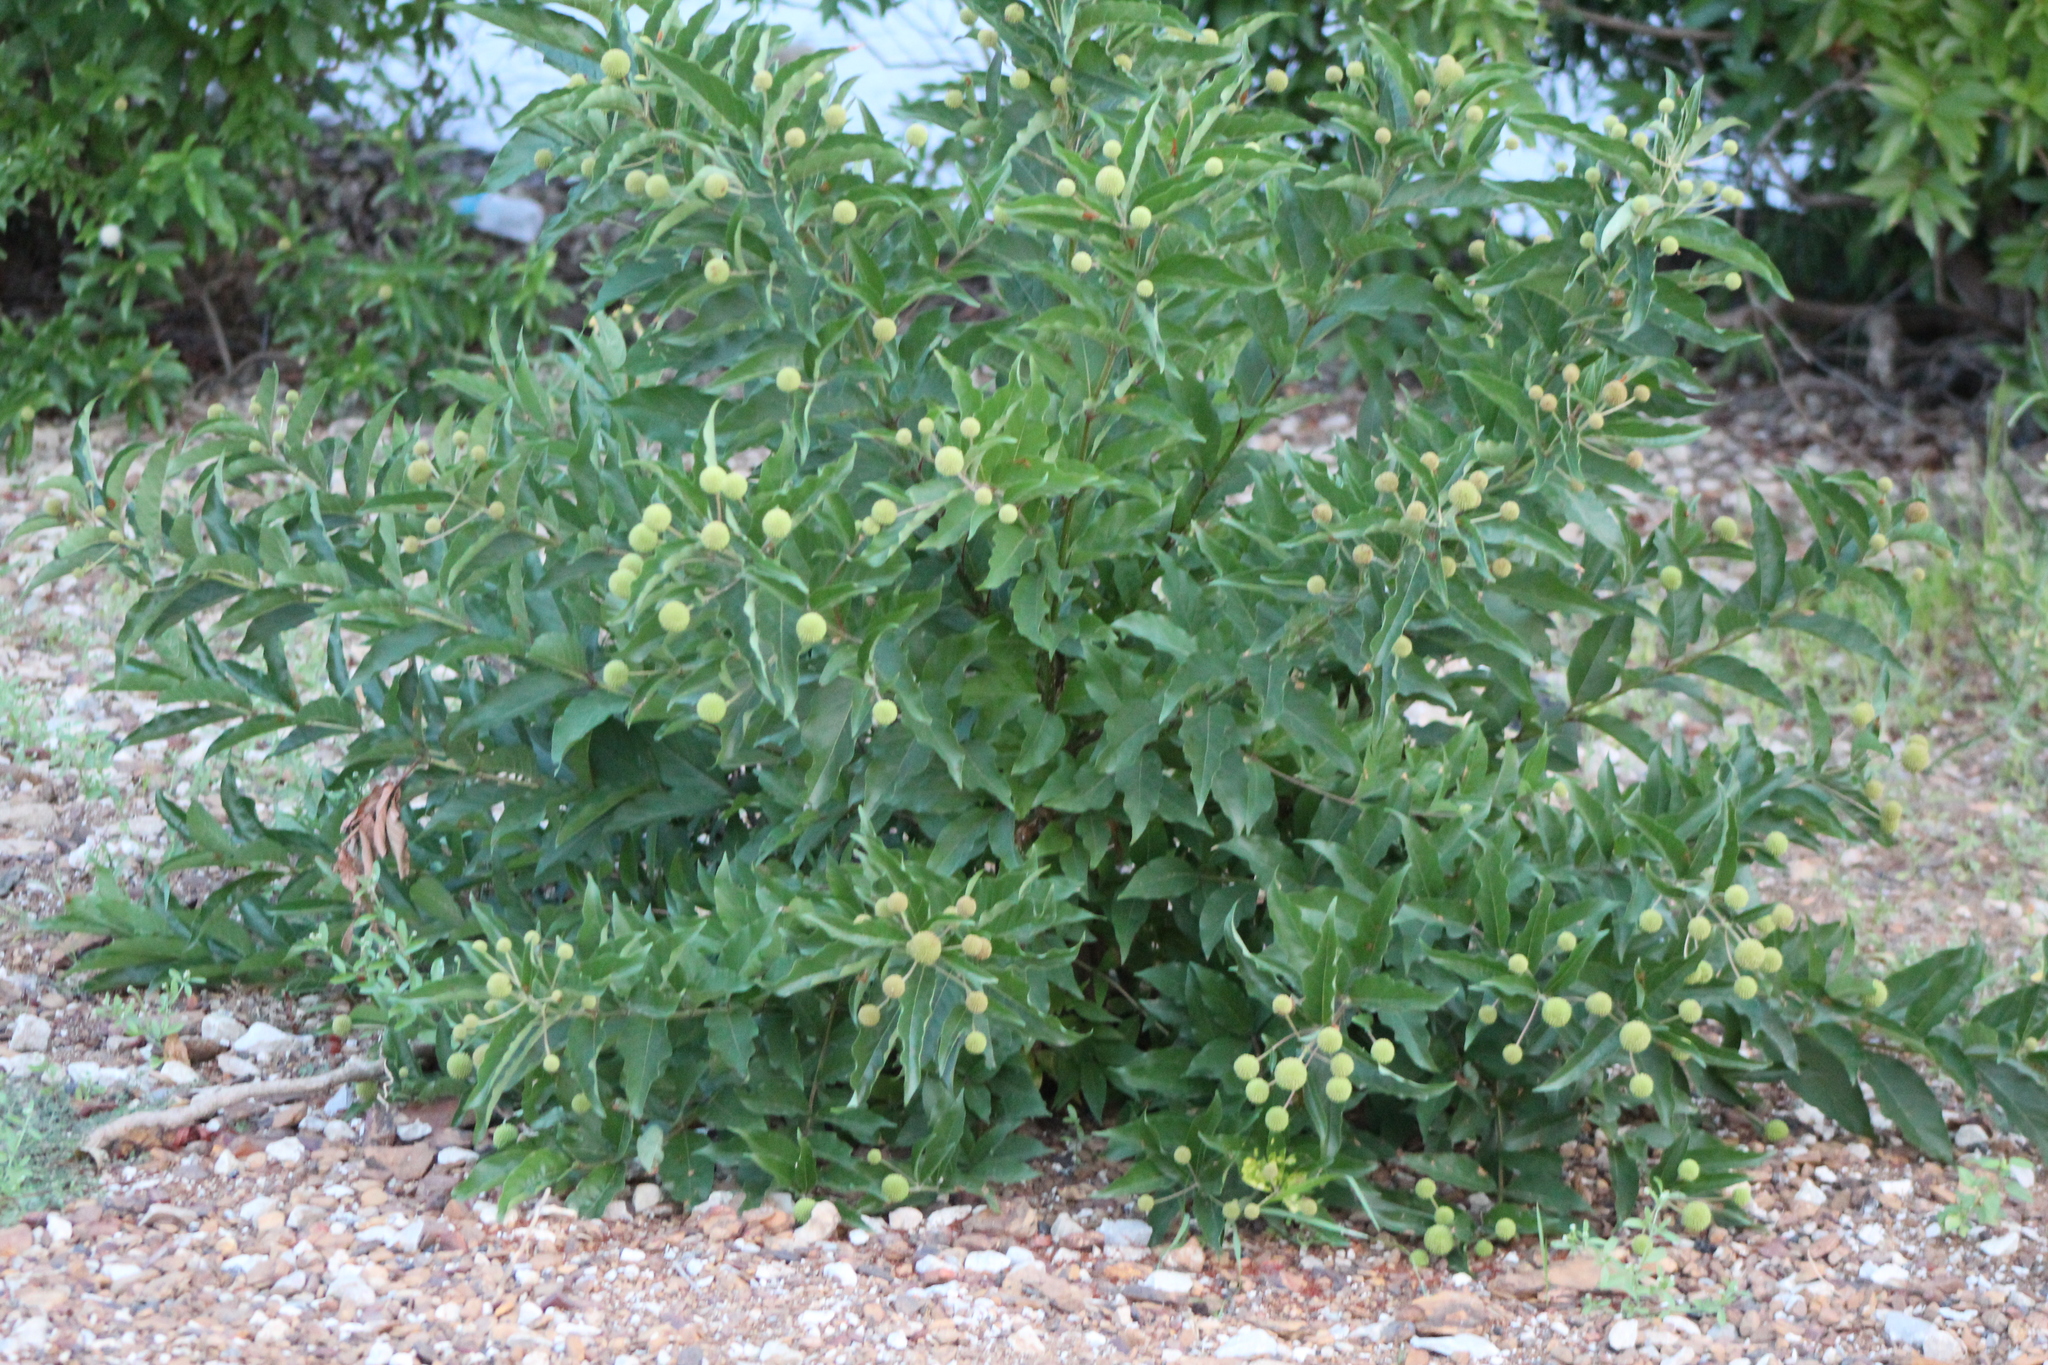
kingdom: Plantae
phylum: Tracheophyta
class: Magnoliopsida
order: Gentianales
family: Rubiaceae
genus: Cephalanthus
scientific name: Cephalanthus occidentalis
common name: Button-willow
